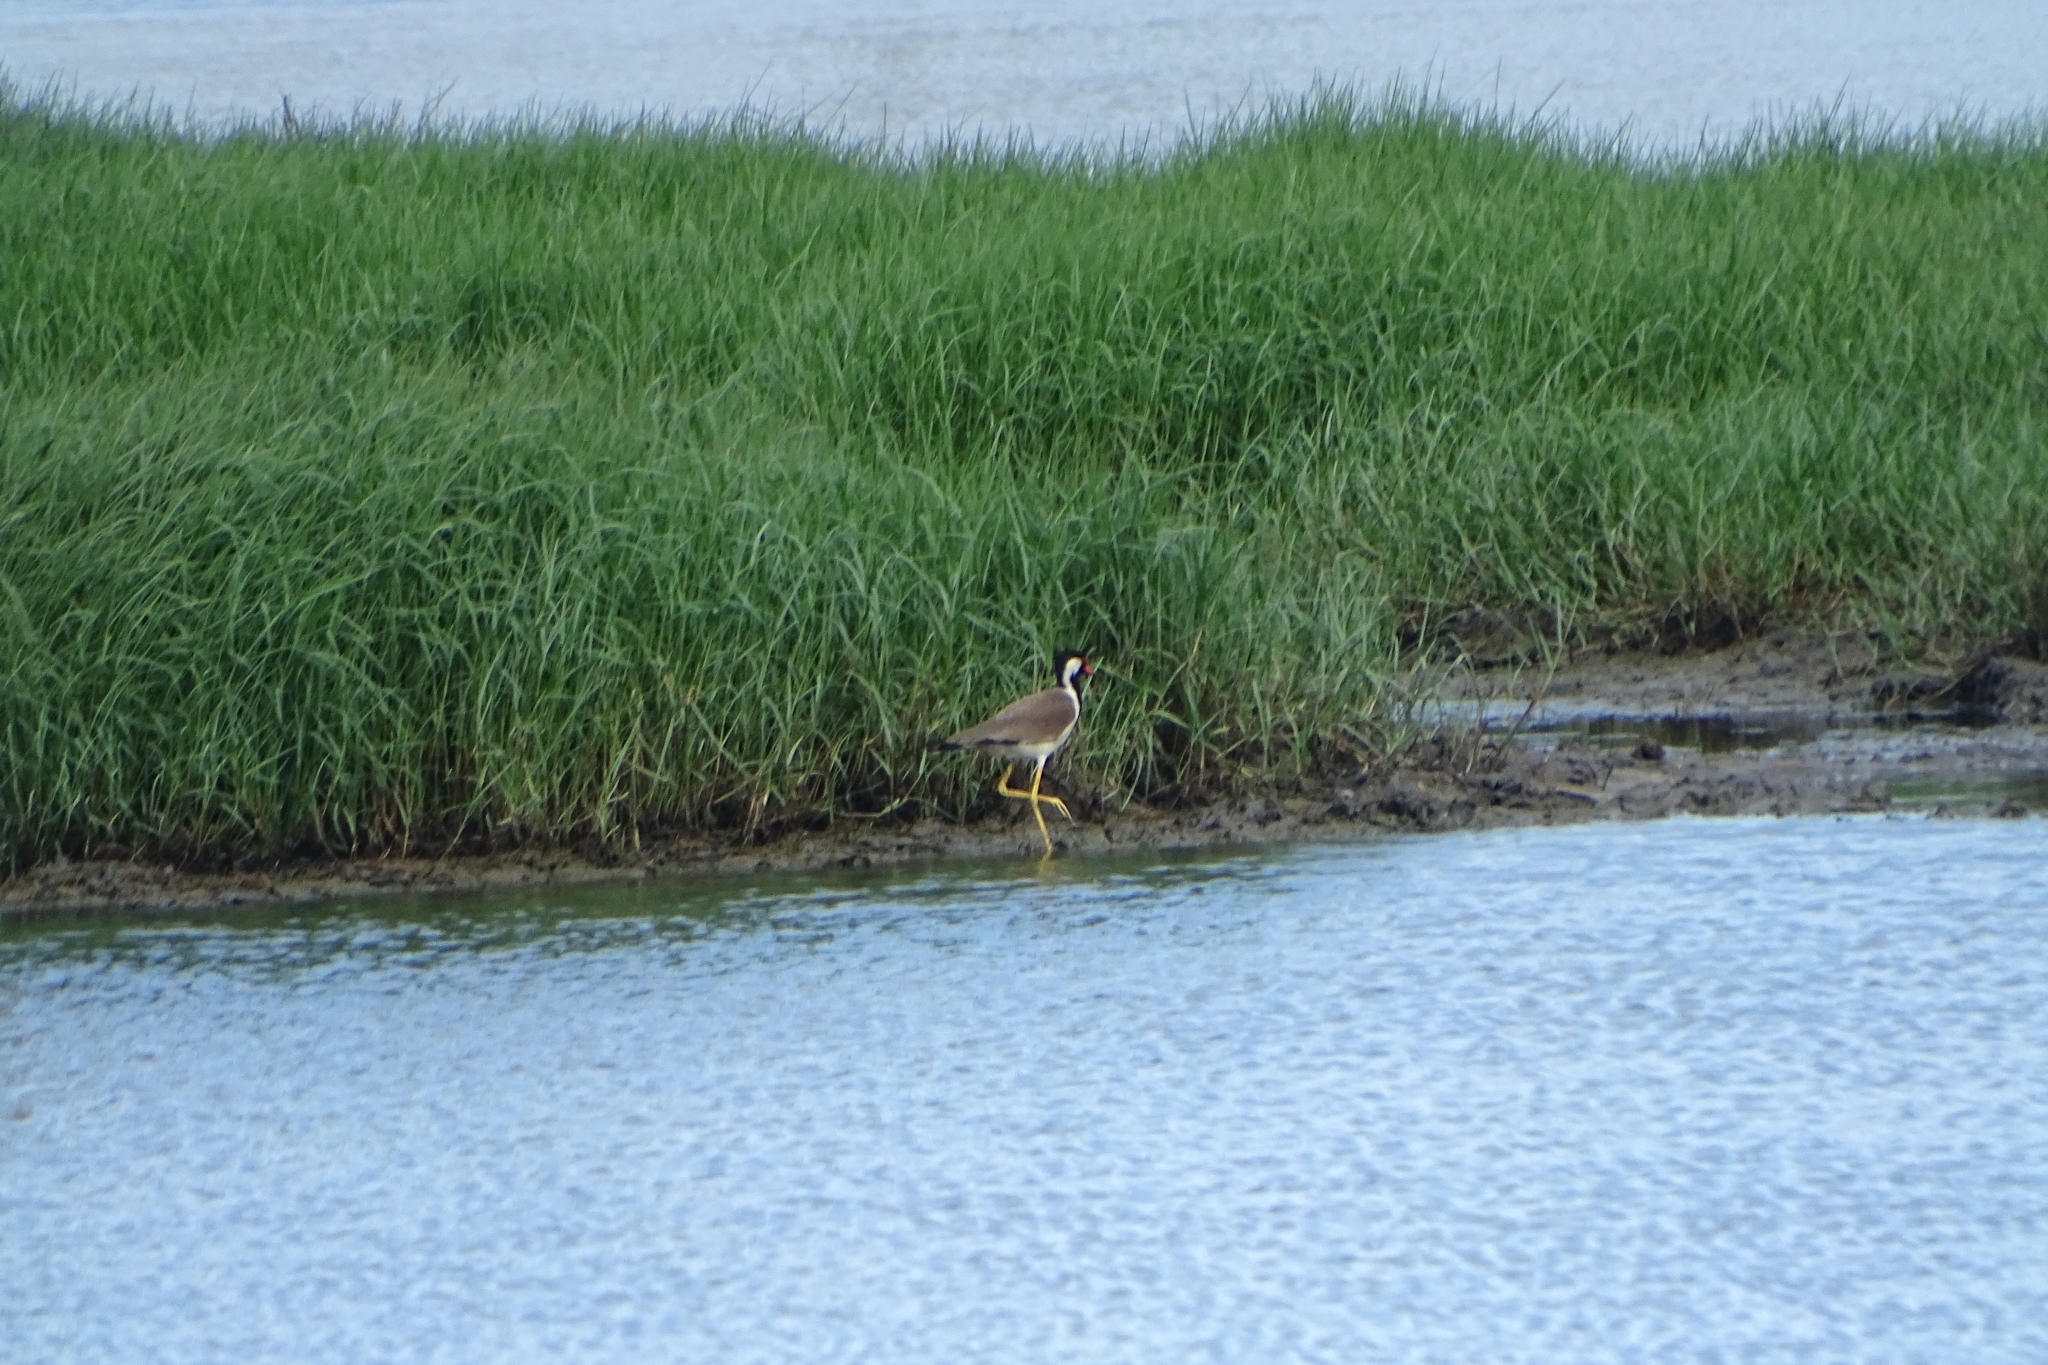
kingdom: Animalia
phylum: Chordata
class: Aves
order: Charadriiformes
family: Charadriidae
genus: Vanellus
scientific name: Vanellus indicus
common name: Red-wattled lapwing
